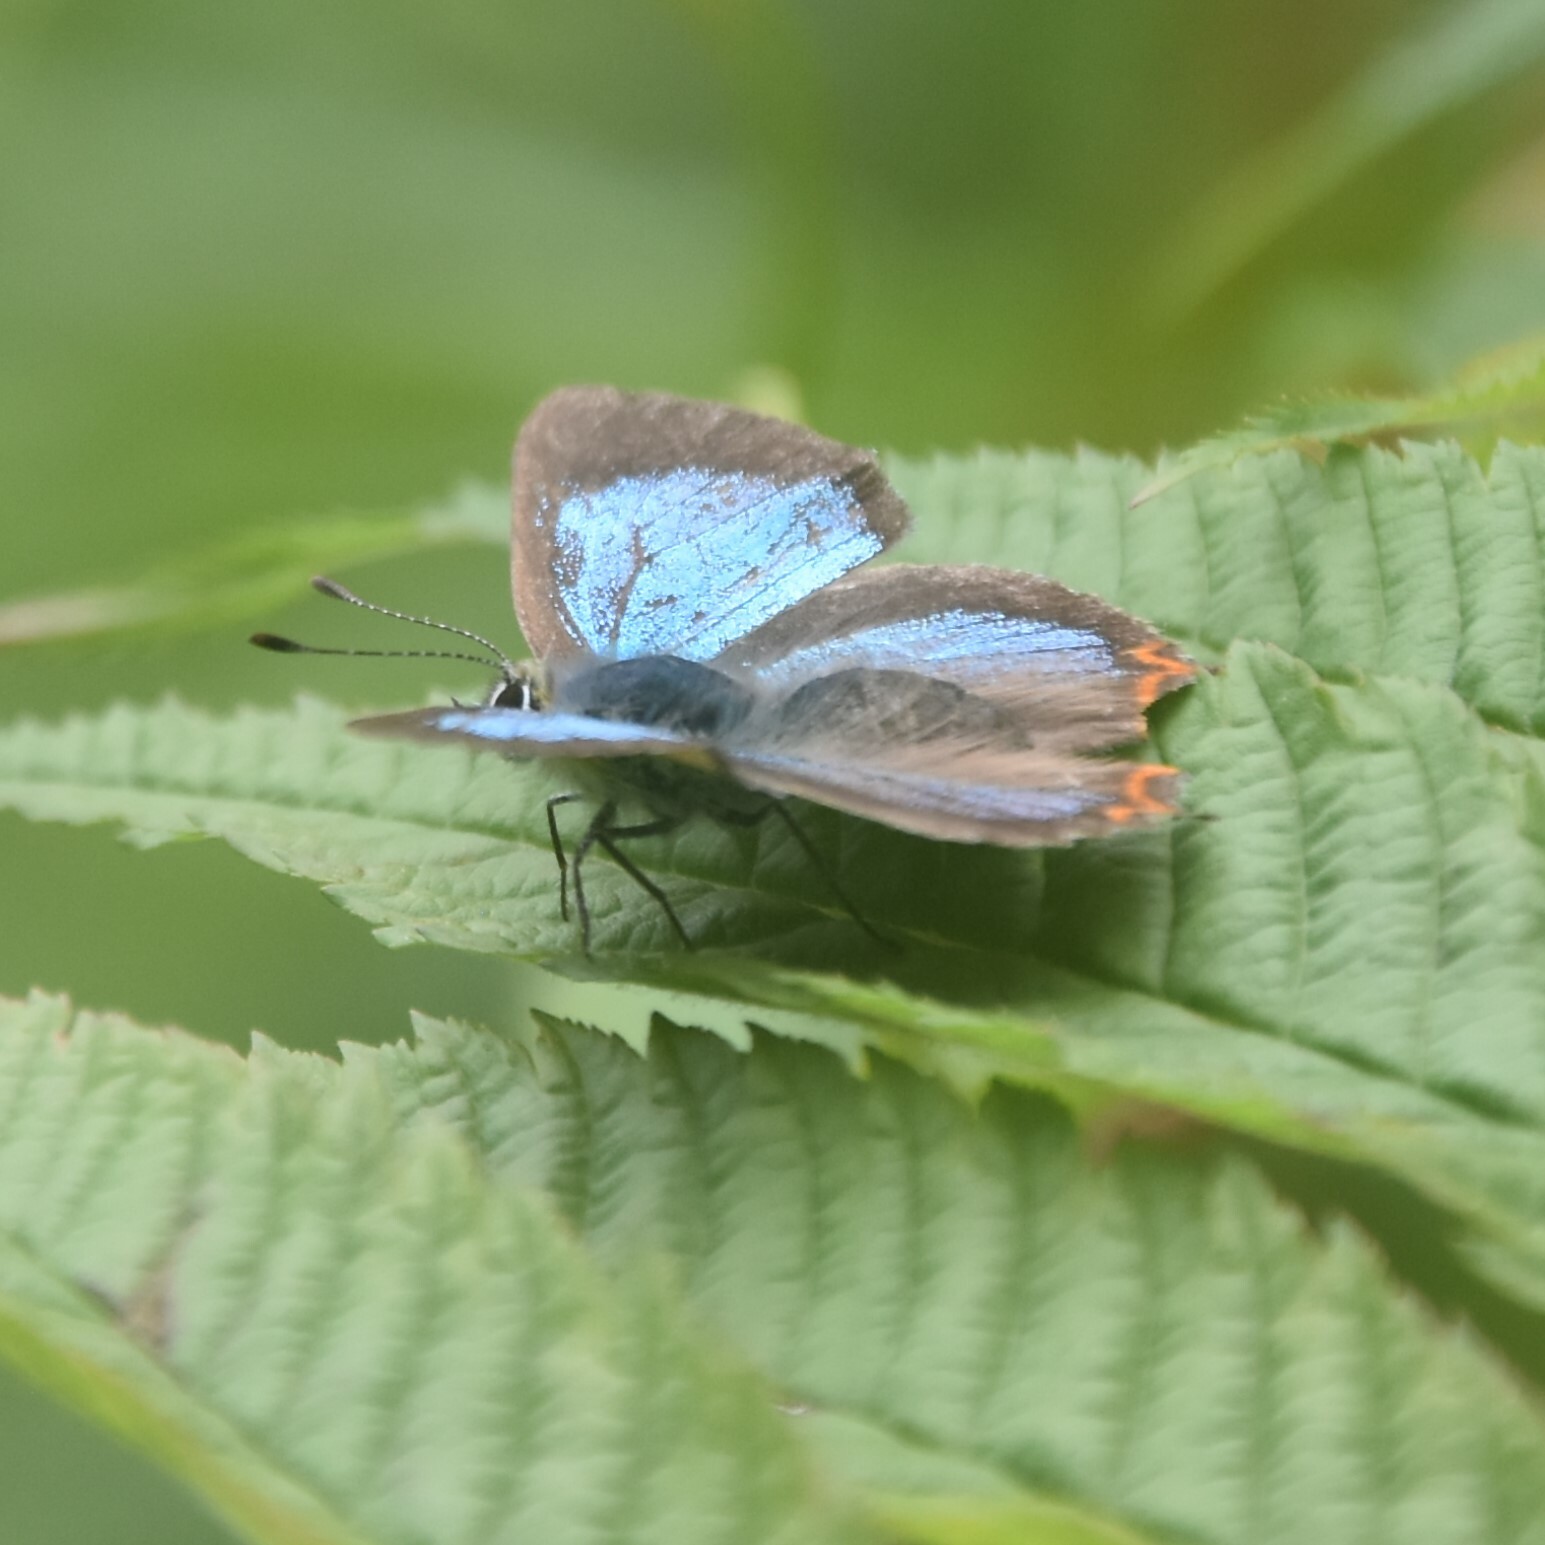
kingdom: Animalia
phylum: Arthropoda
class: Insecta
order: Lepidoptera
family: Lycaenidae
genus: Heliophorus
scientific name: Heliophorus
